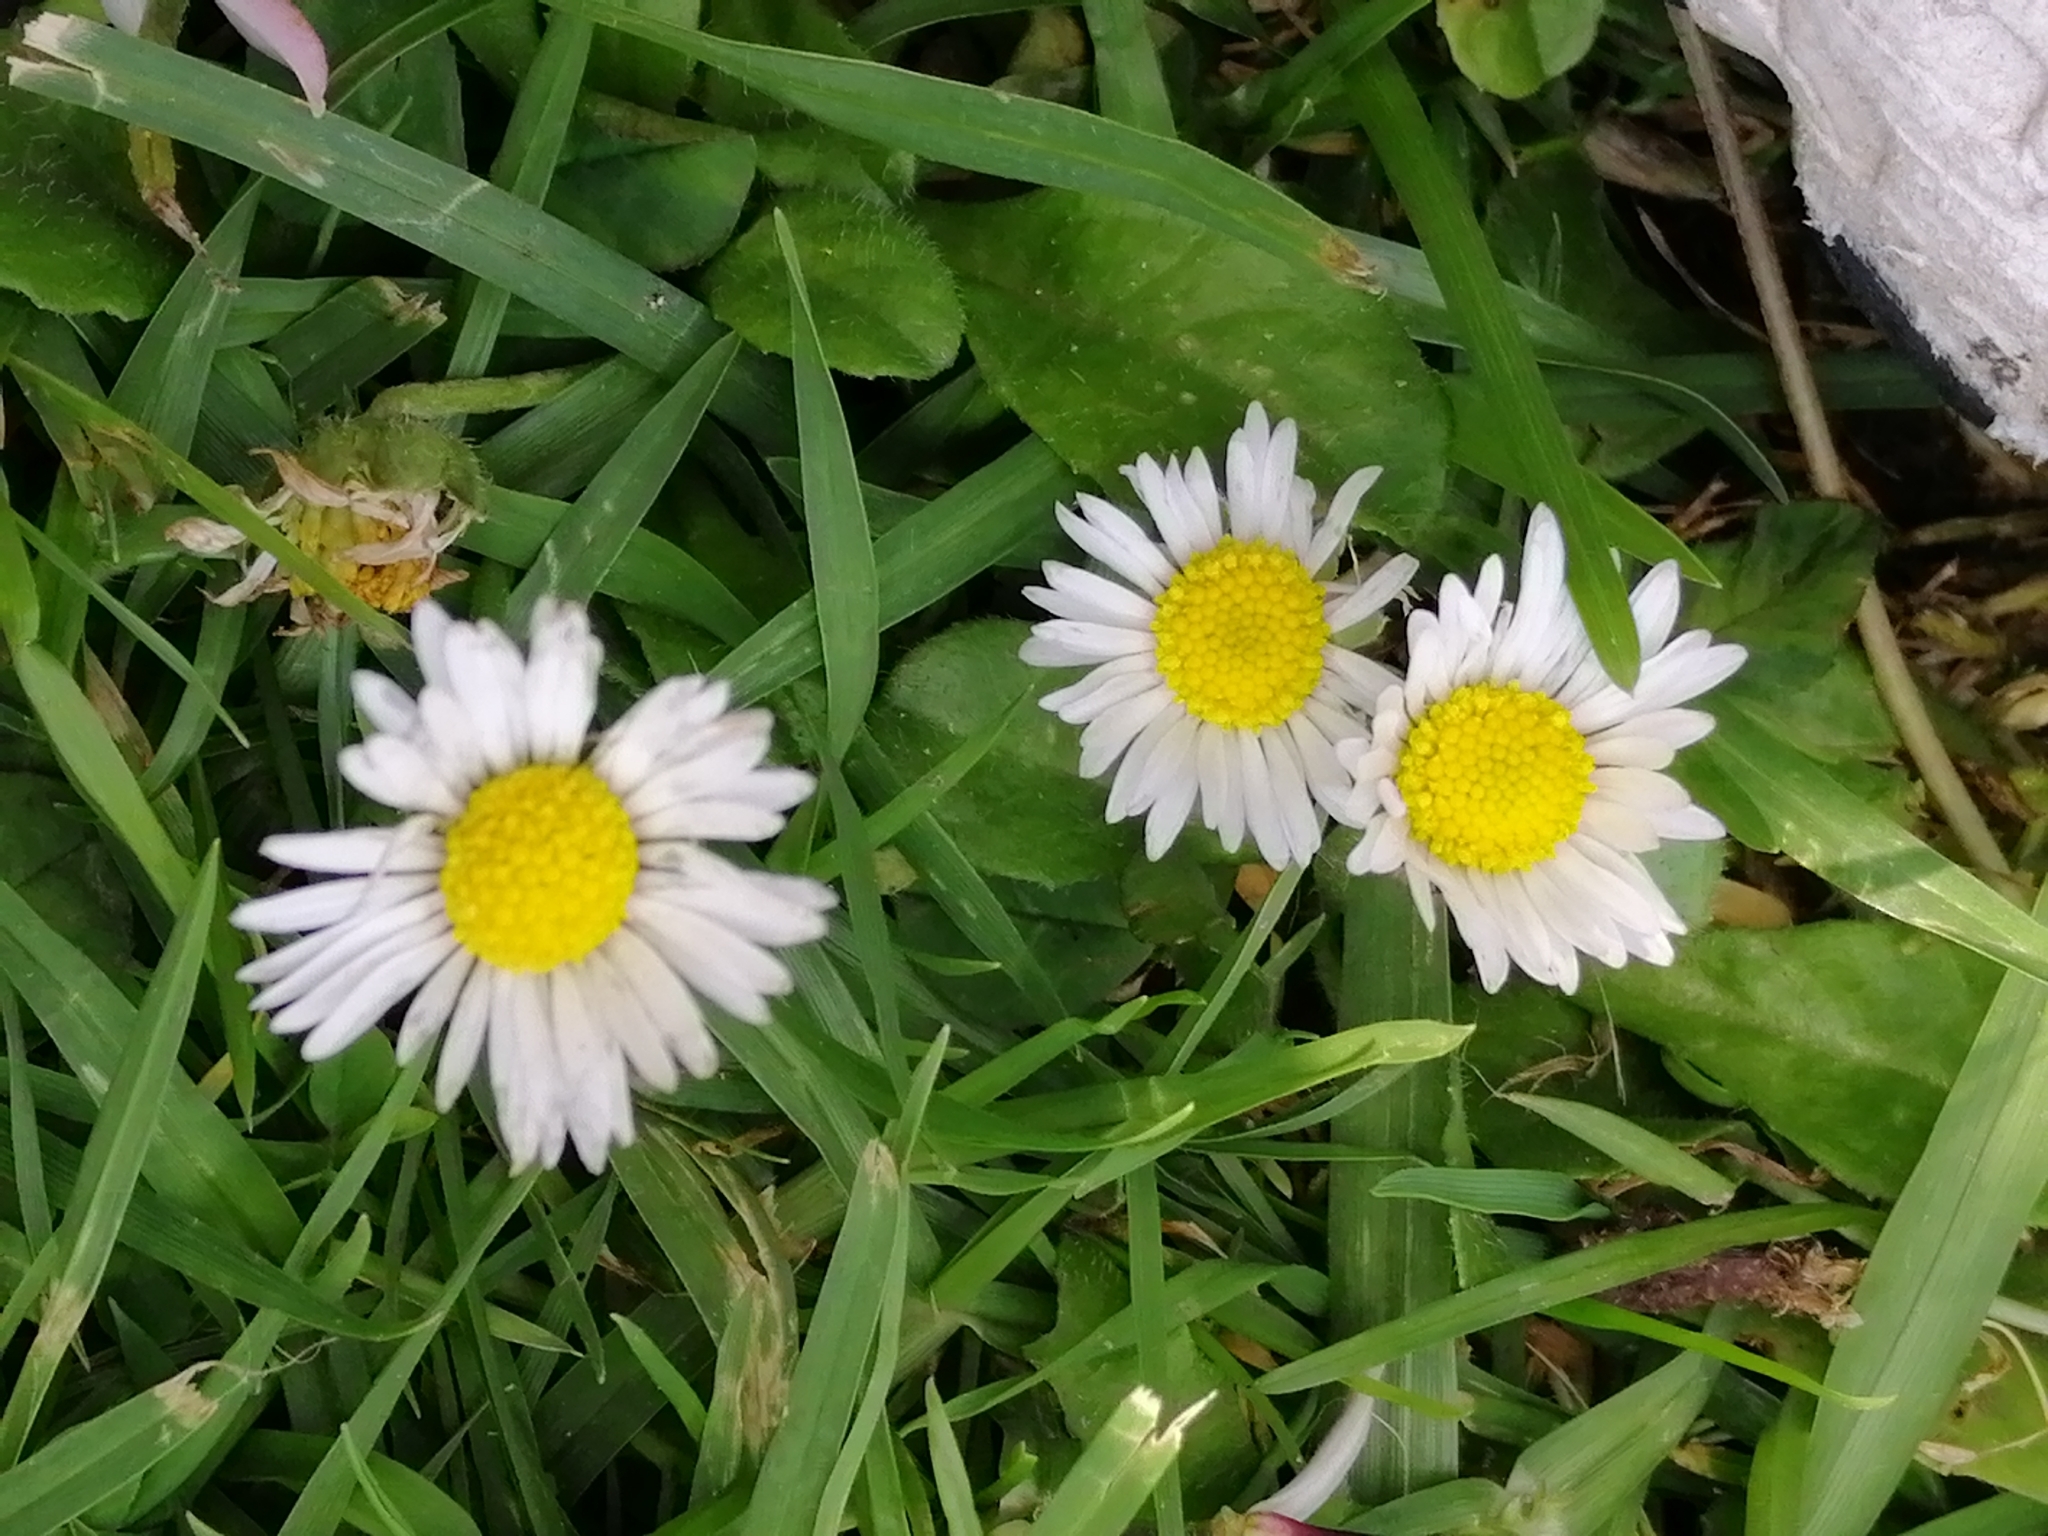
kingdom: Plantae
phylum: Tracheophyta
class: Magnoliopsida
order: Asterales
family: Asteraceae
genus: Bellis
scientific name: Bellis perennis
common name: Lawndaisy
